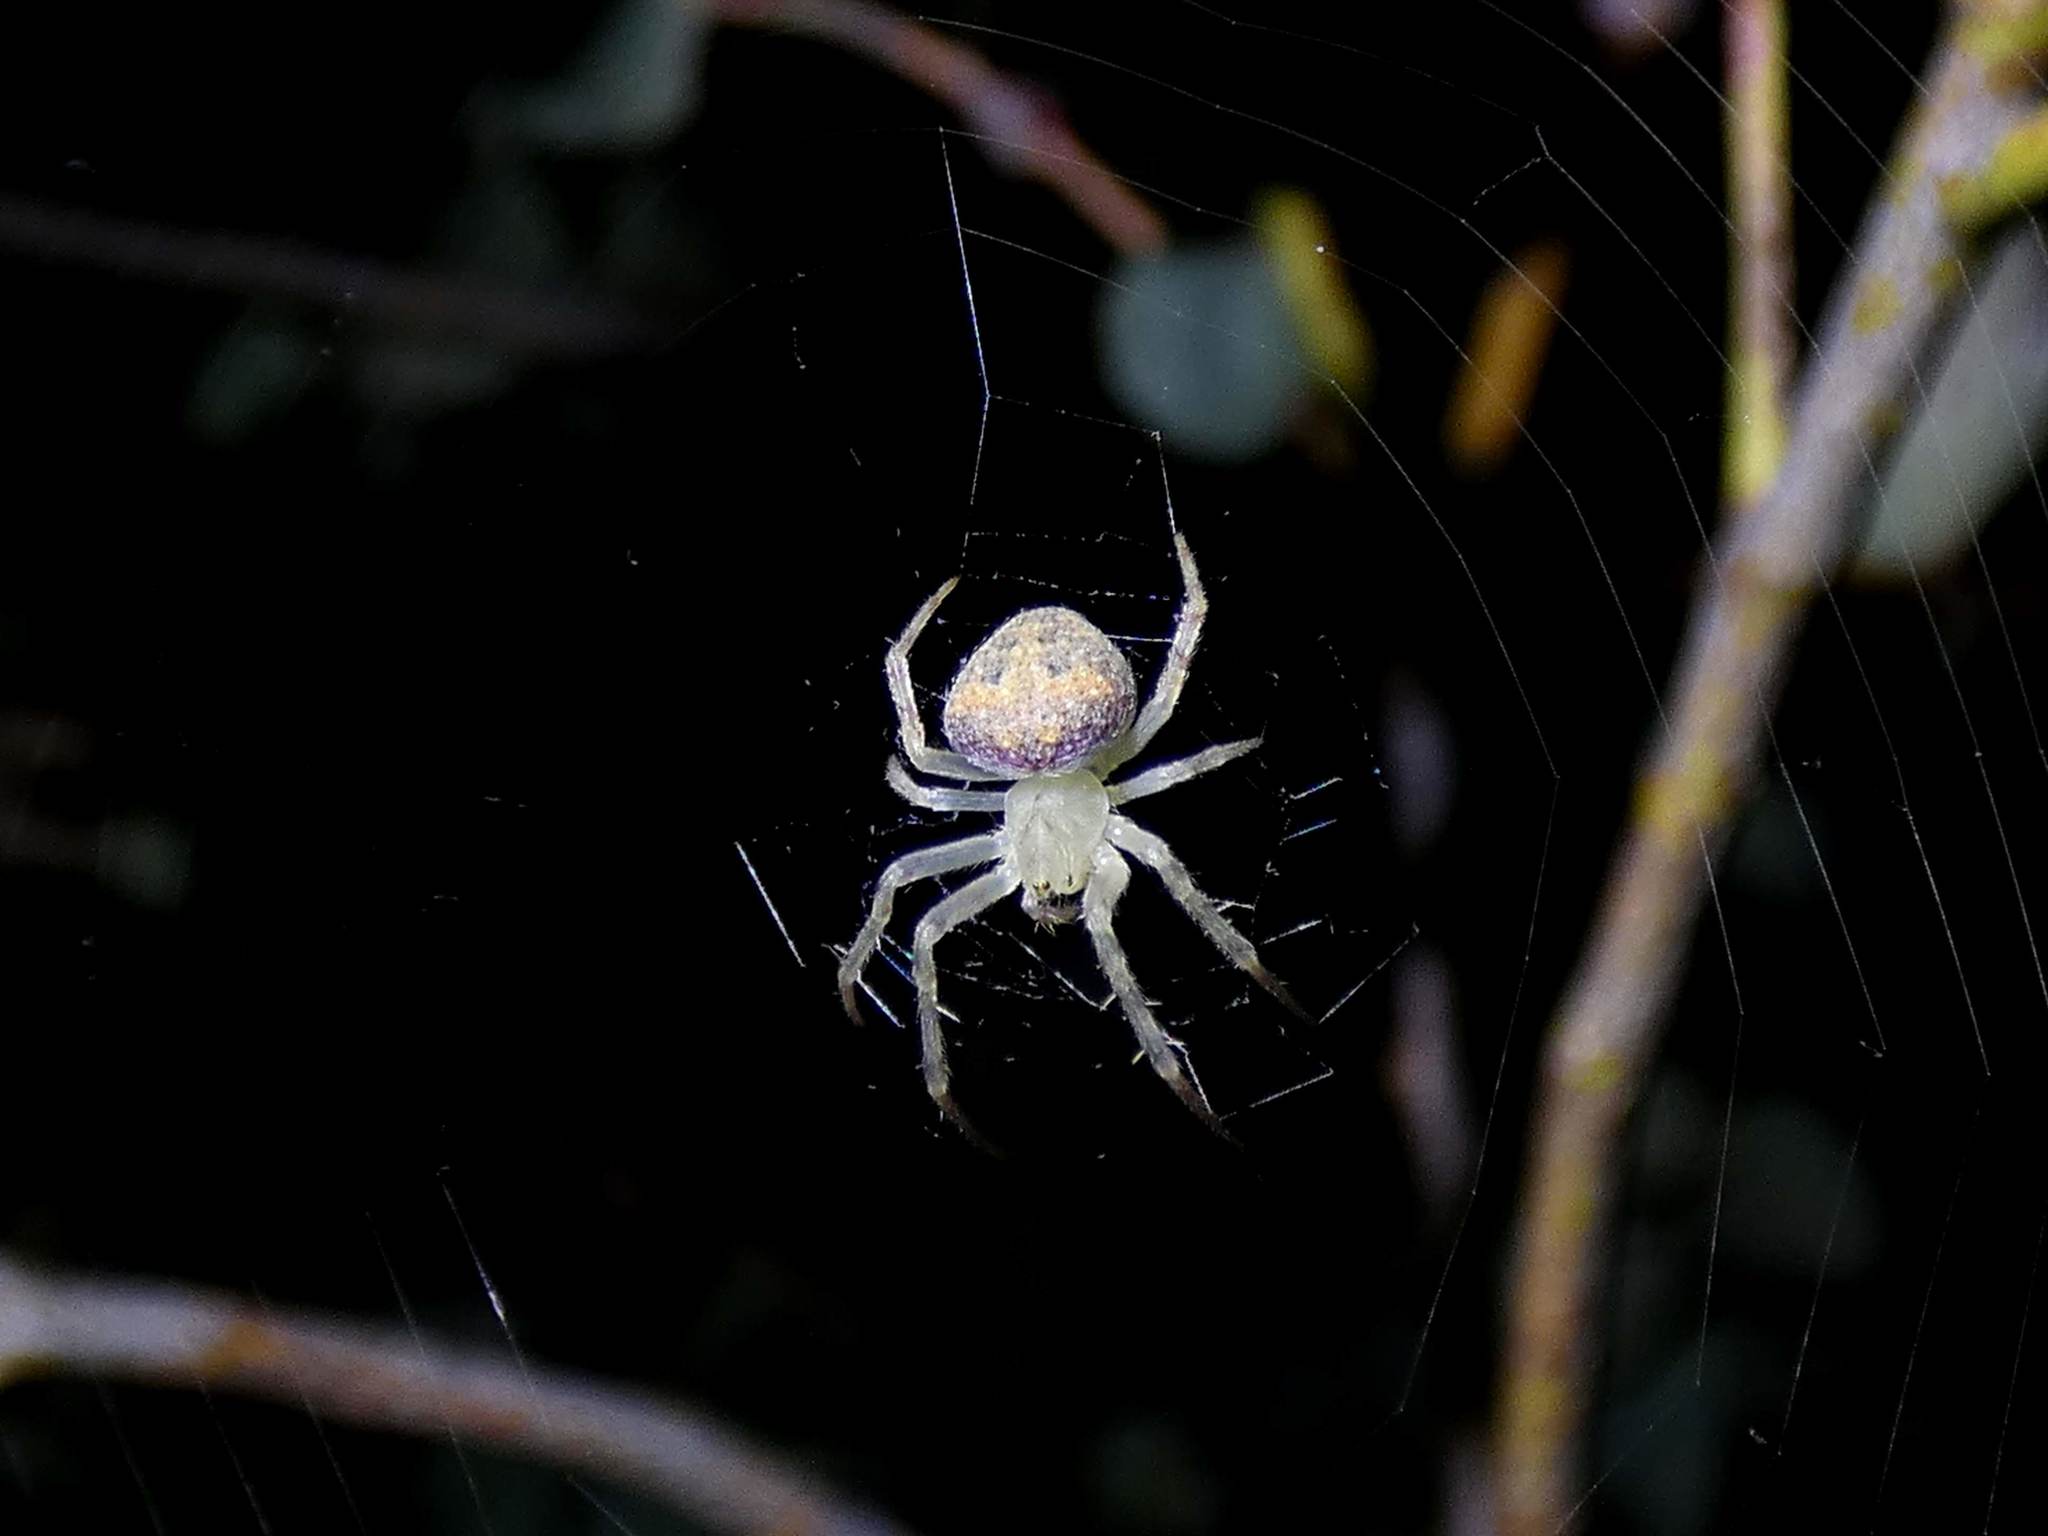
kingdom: Animalia
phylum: Arthropoda
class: Arachnida
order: Araneae
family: Araneidae
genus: Araneus
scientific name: Araneus circulissparsus
